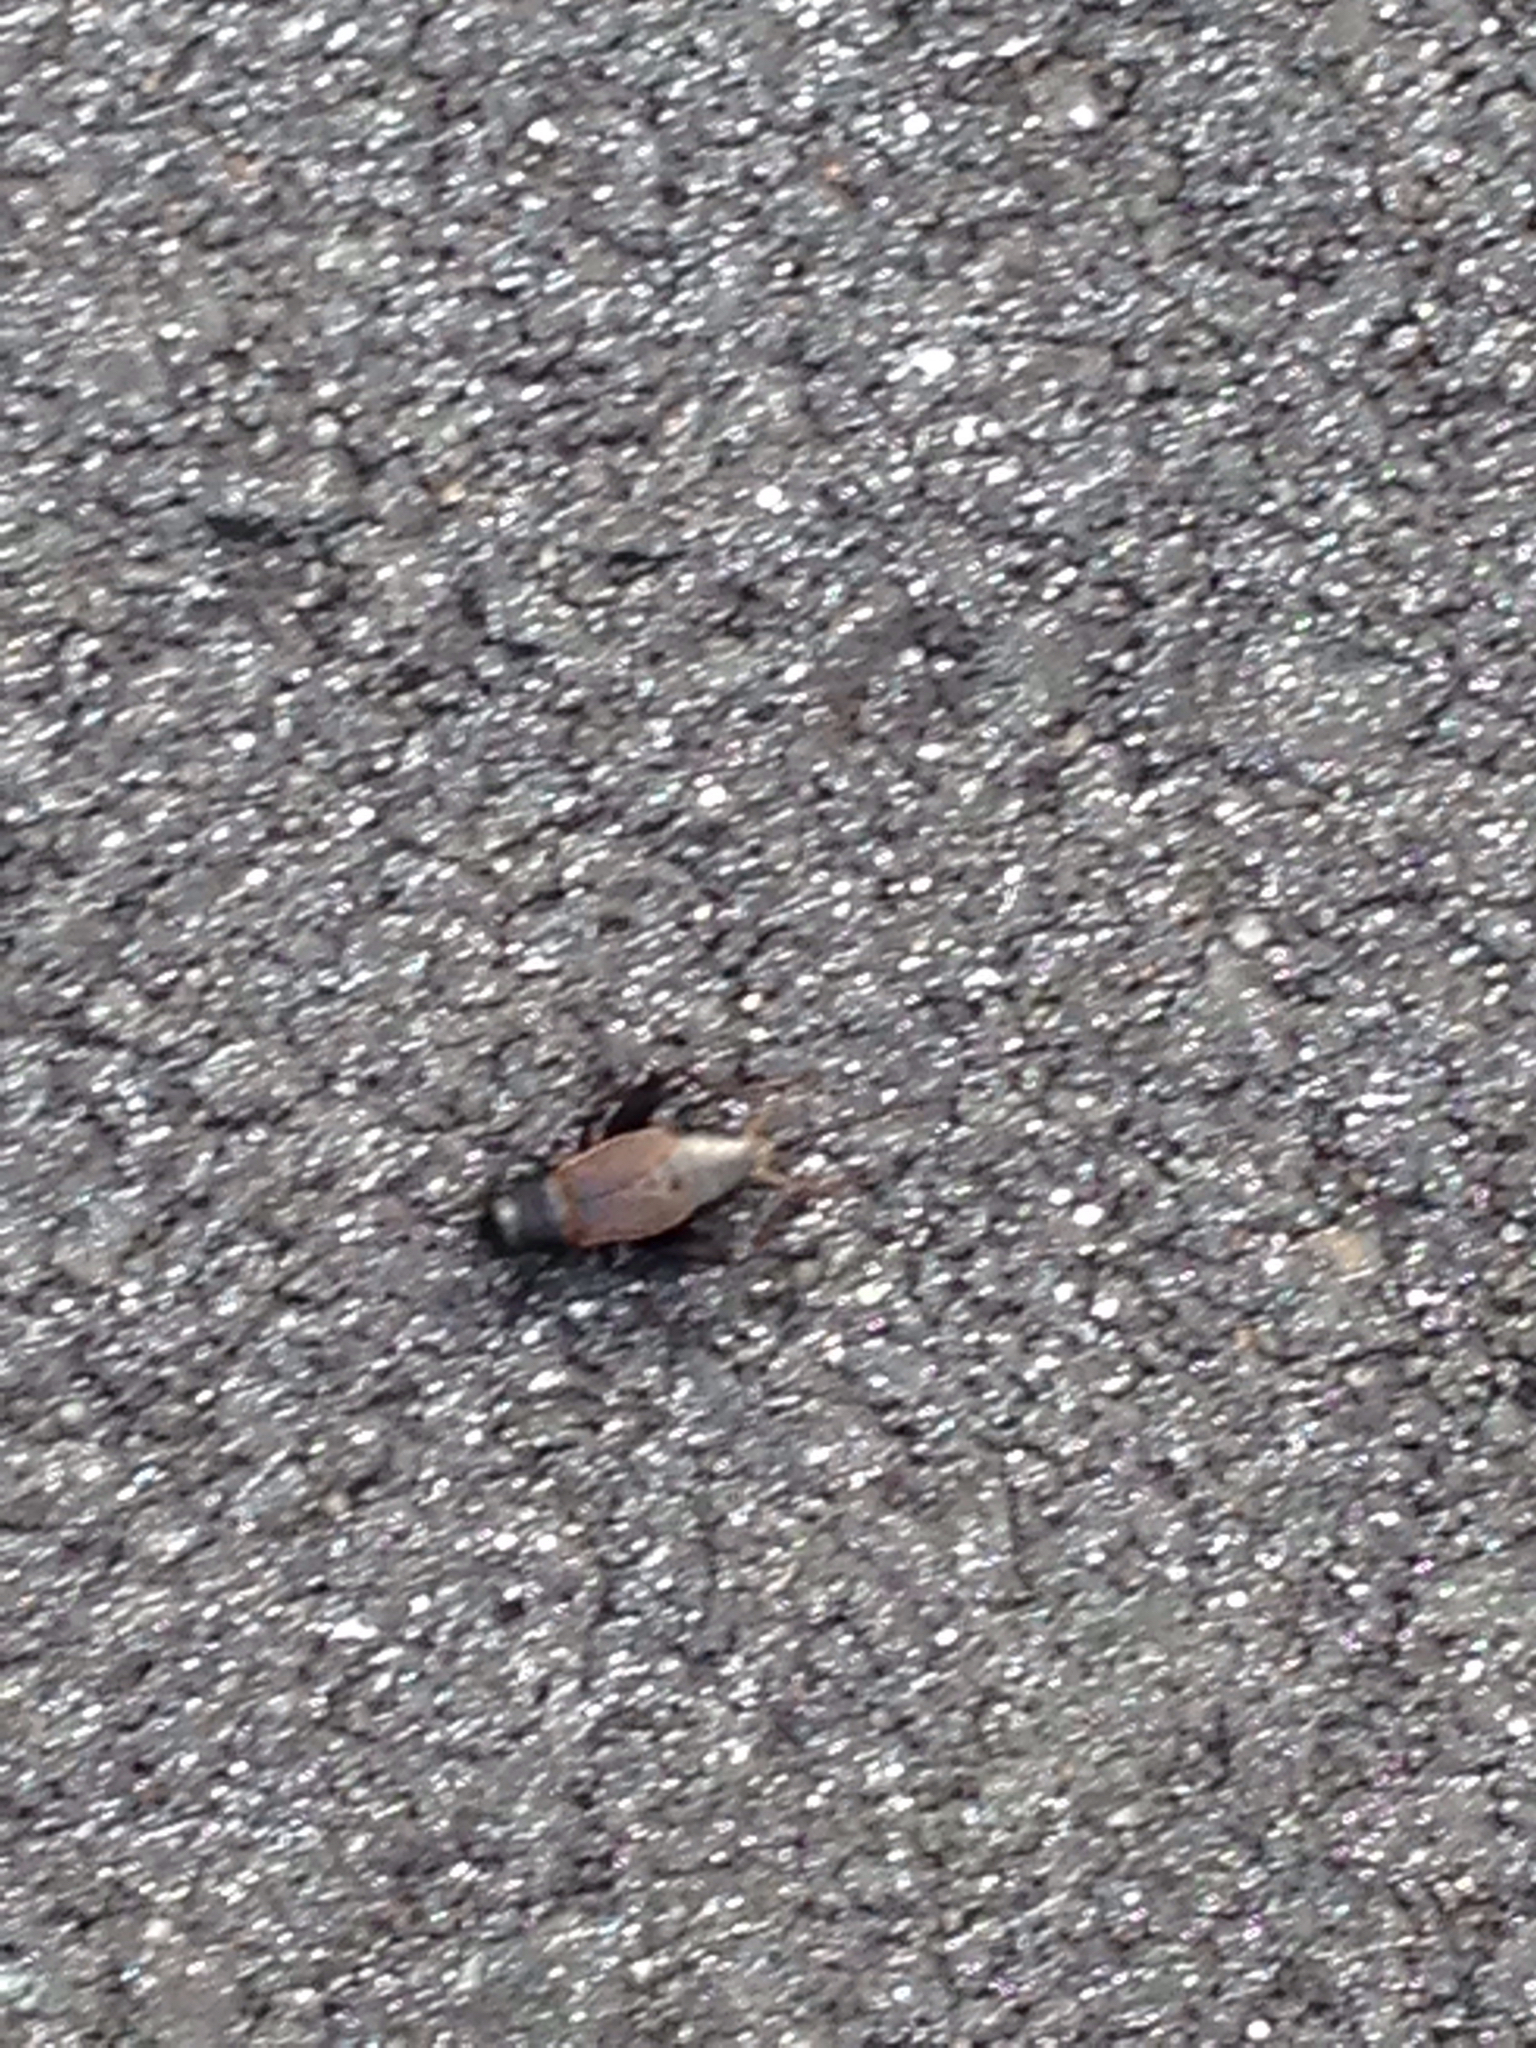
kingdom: Animalia
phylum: Arthropoda
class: Insecta
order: Orthoptera
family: Gryllidae
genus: Gryllus
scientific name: Gryllus pennsylvanicus
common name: Fall field cricket
